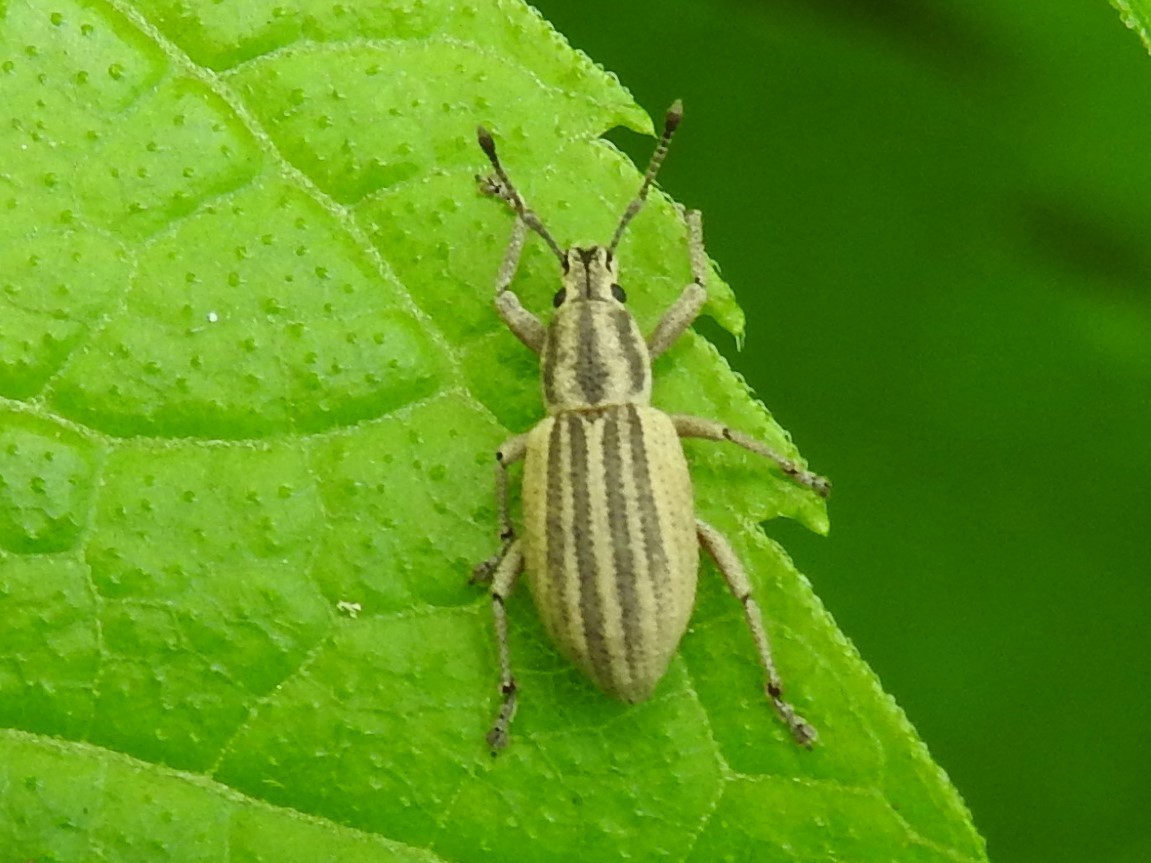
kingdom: Animalia
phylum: Arthropoda
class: Insecta
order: Coleoptera
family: Curculionidae
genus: Aphrastus
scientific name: Aphrastus taeniatus
